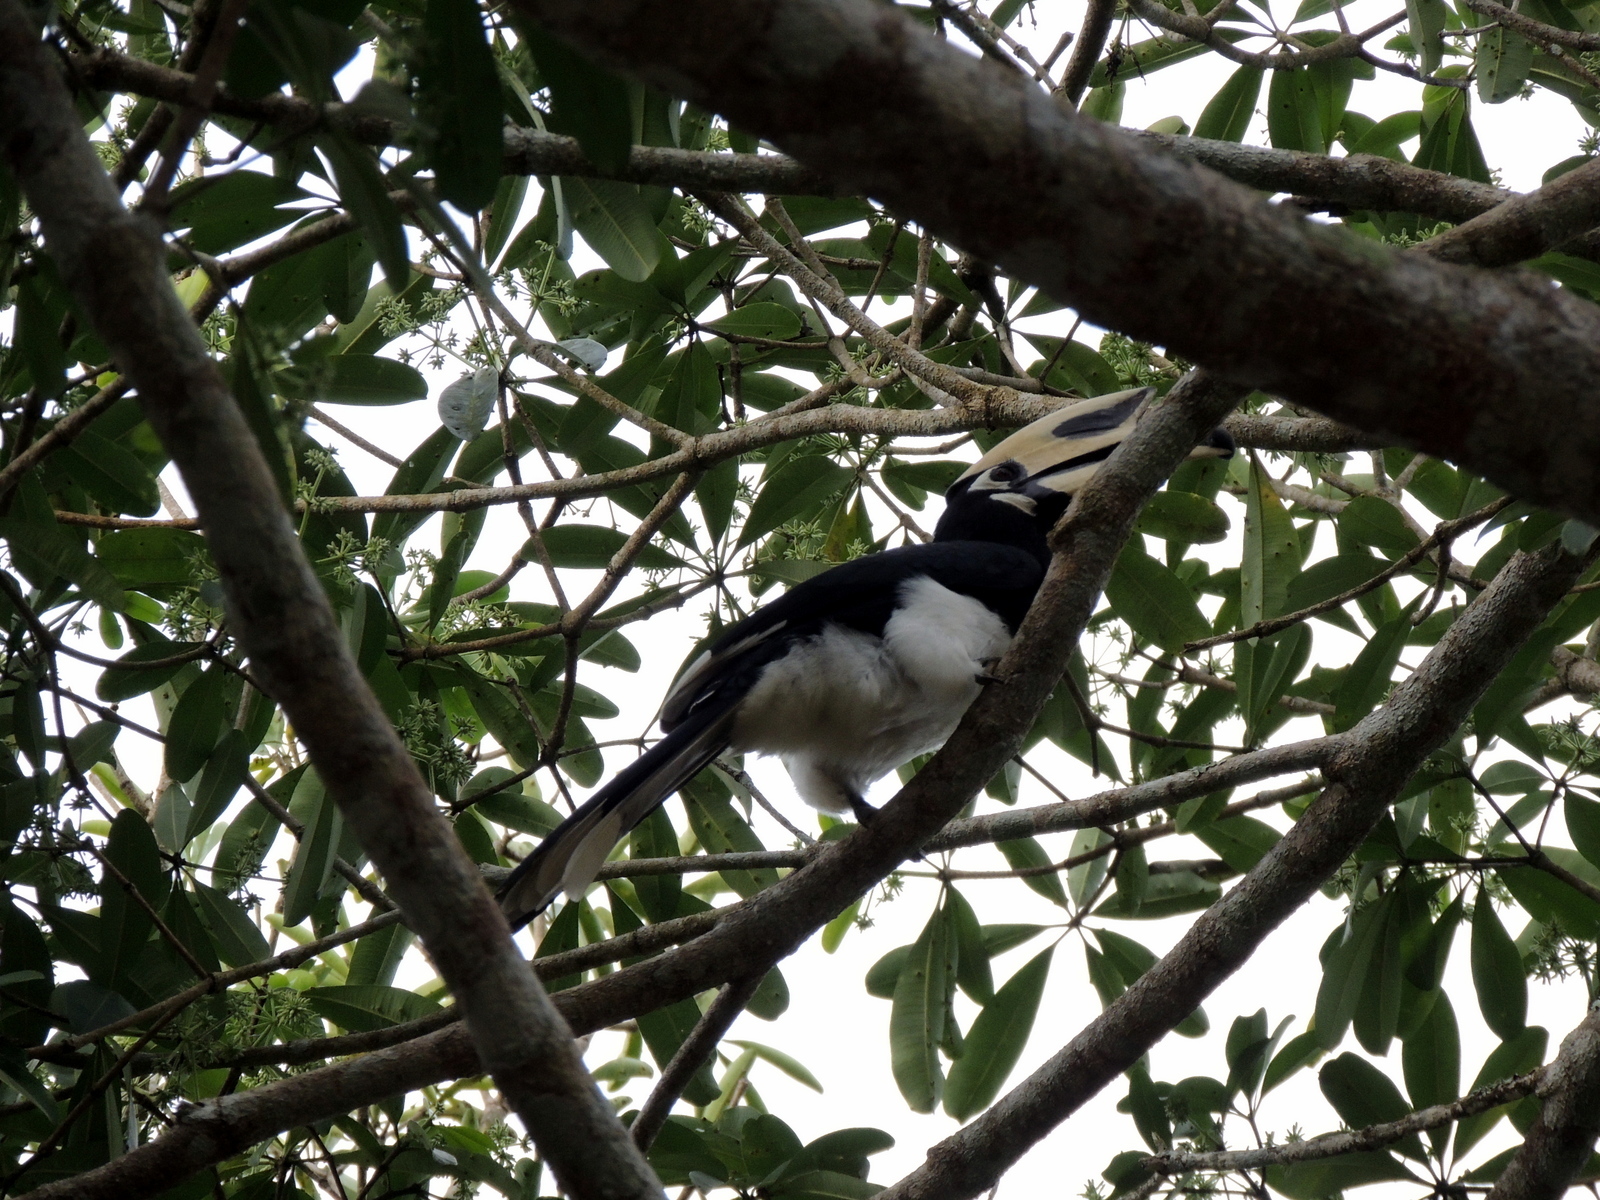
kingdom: Animalia
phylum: Chordata
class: Aves
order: Bucerotiformes
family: Bucerotidae
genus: Anthracoceros
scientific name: Anthracoceros albirostris
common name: Oriental pied-hornbill
